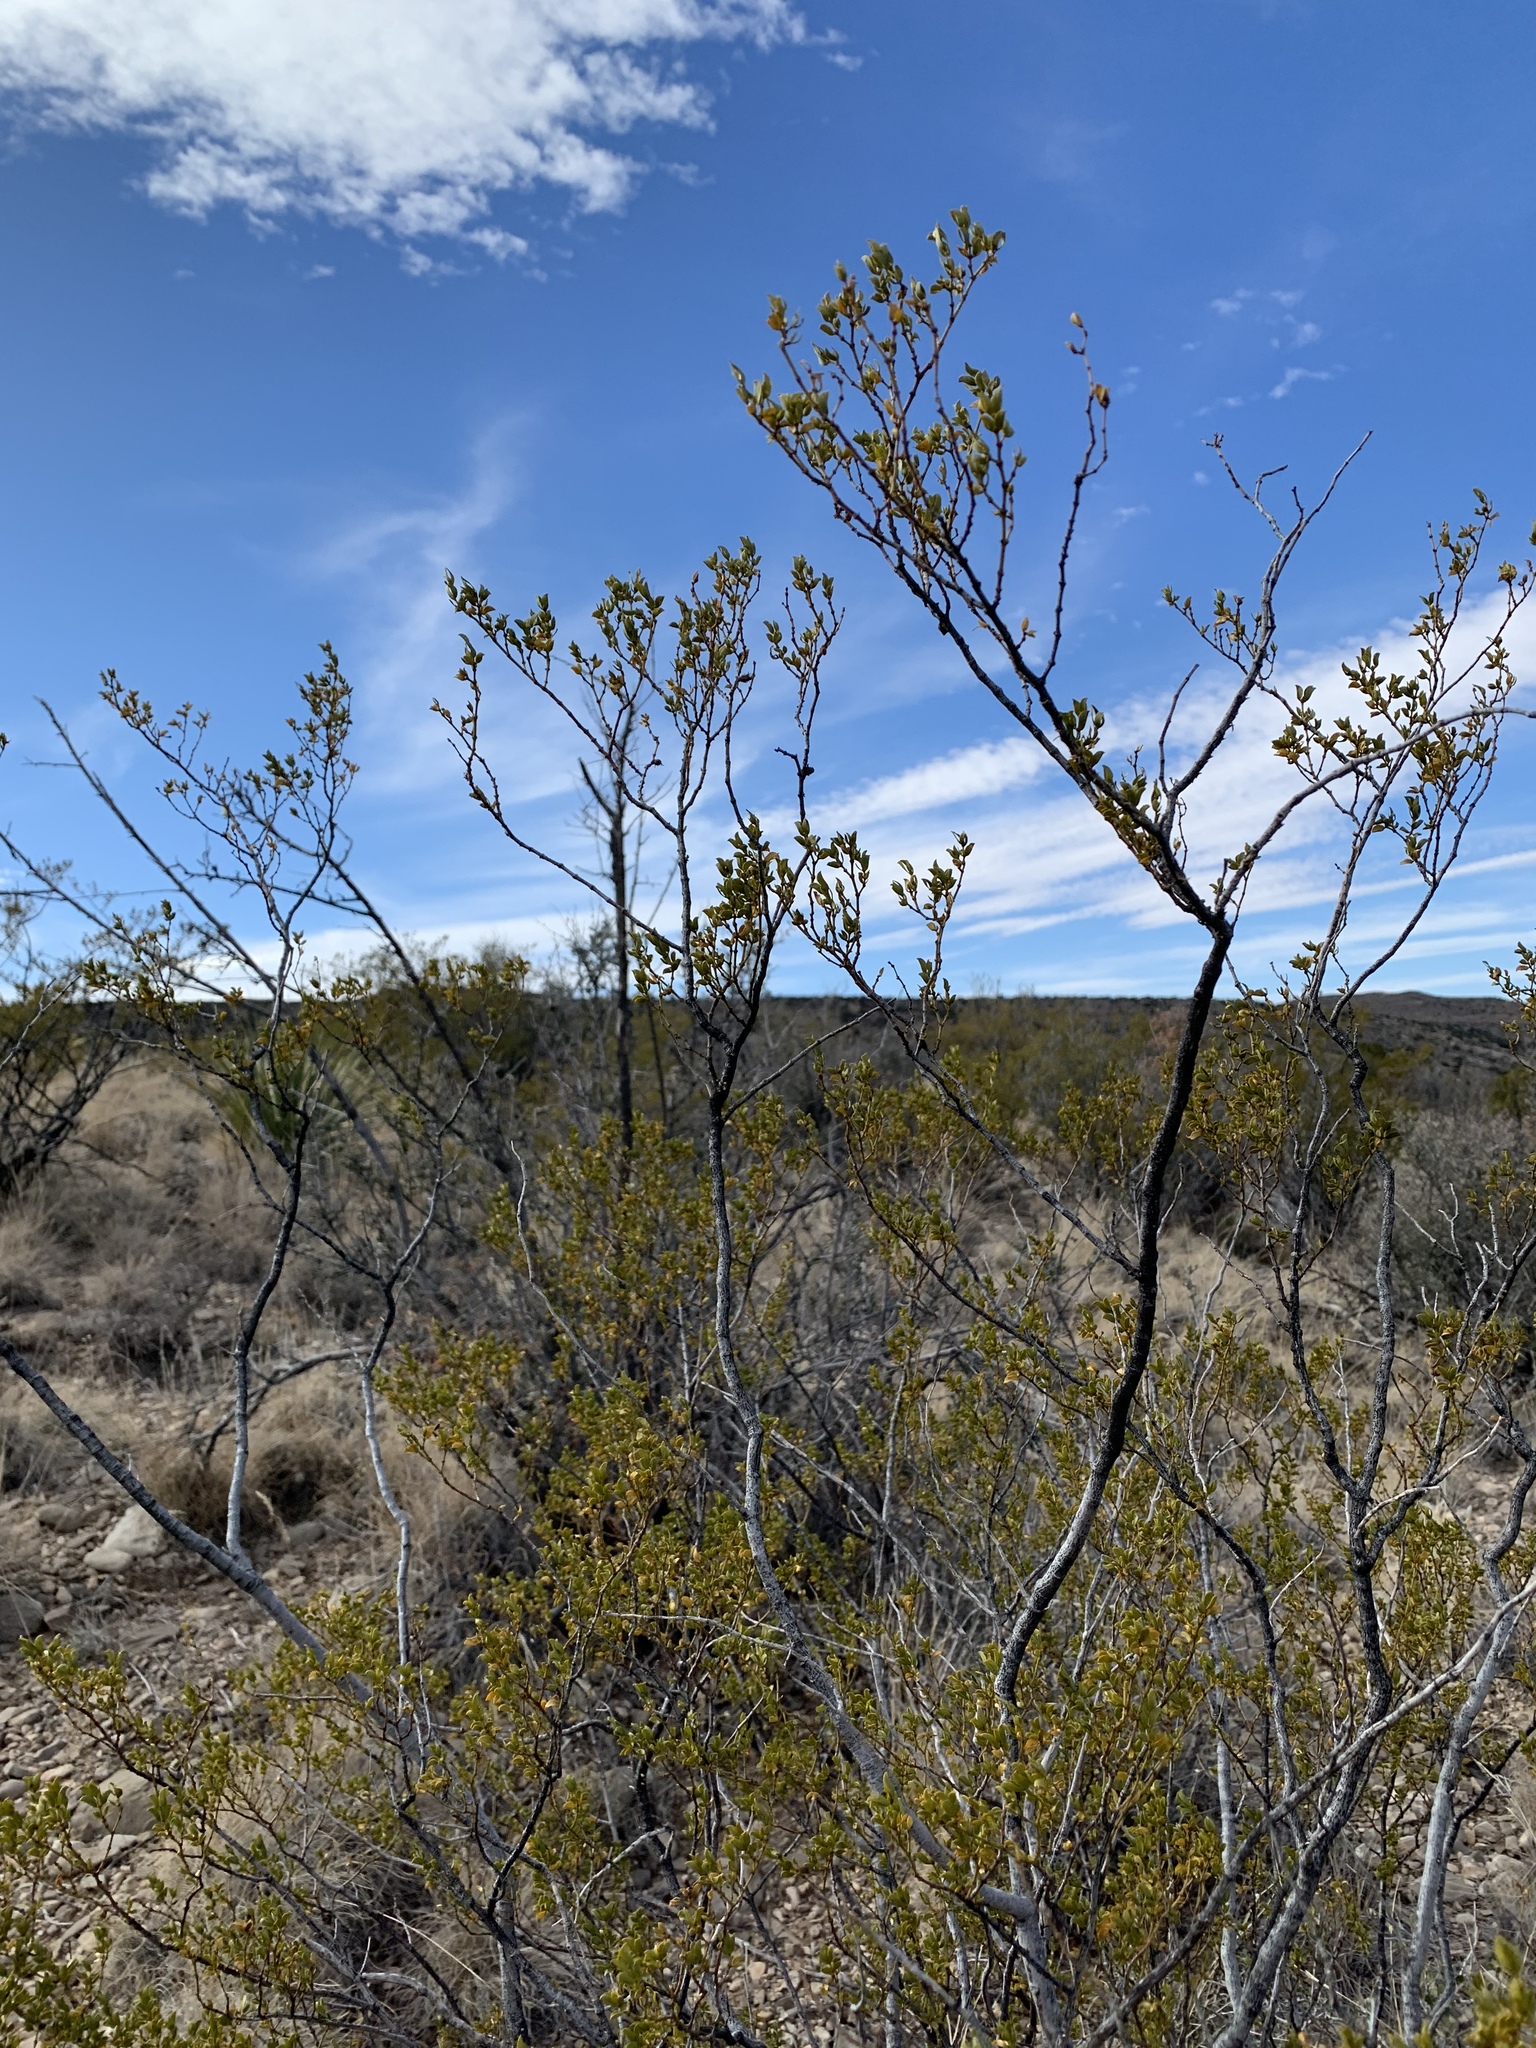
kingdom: Plantae
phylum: Tracheophyta
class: Magnoliopsida
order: Zygophyllales
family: Zygophyllaceae
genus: Larrea
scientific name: Larrea tridentata
